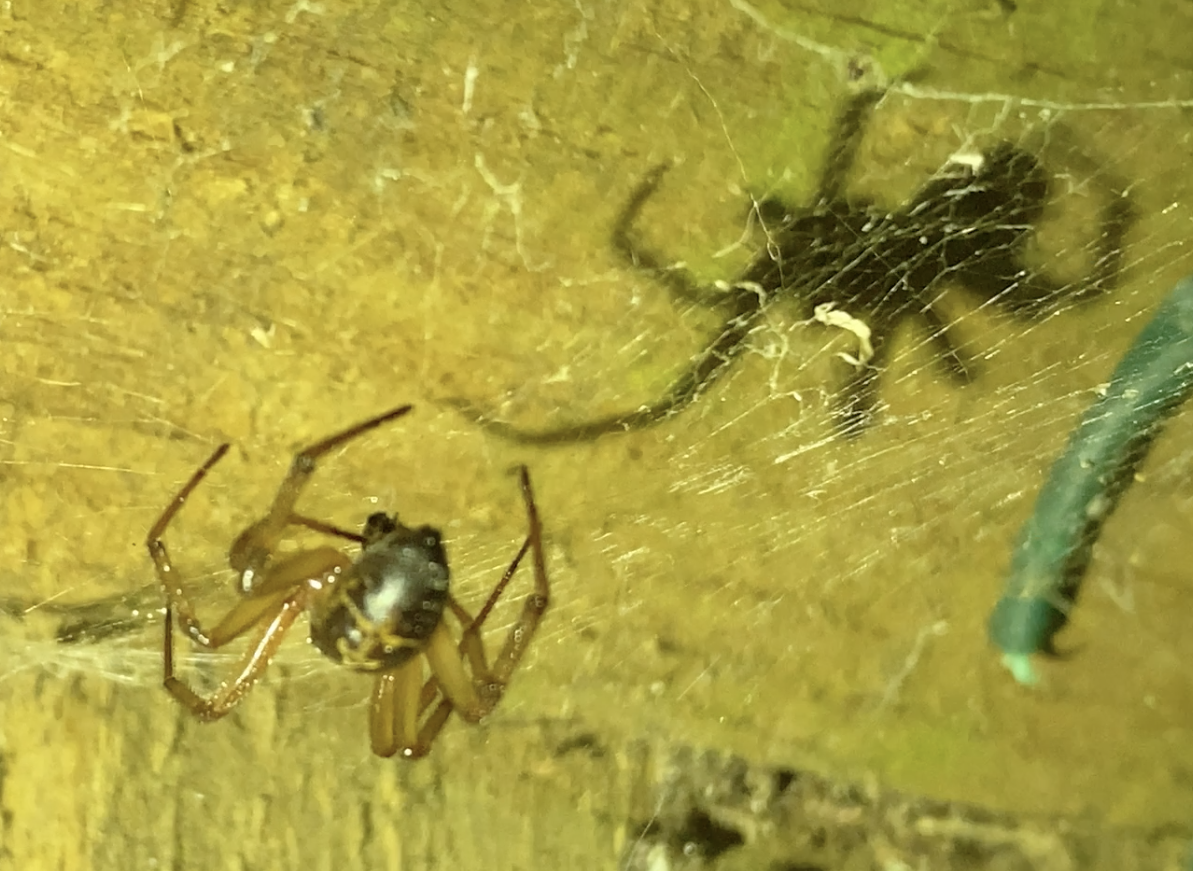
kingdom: Animalia
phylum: Arthropoda
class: Arachnida
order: Araneae
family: Theridiidae
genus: Steatoda
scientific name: Steatoda nobilis
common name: Cobweb weaver
